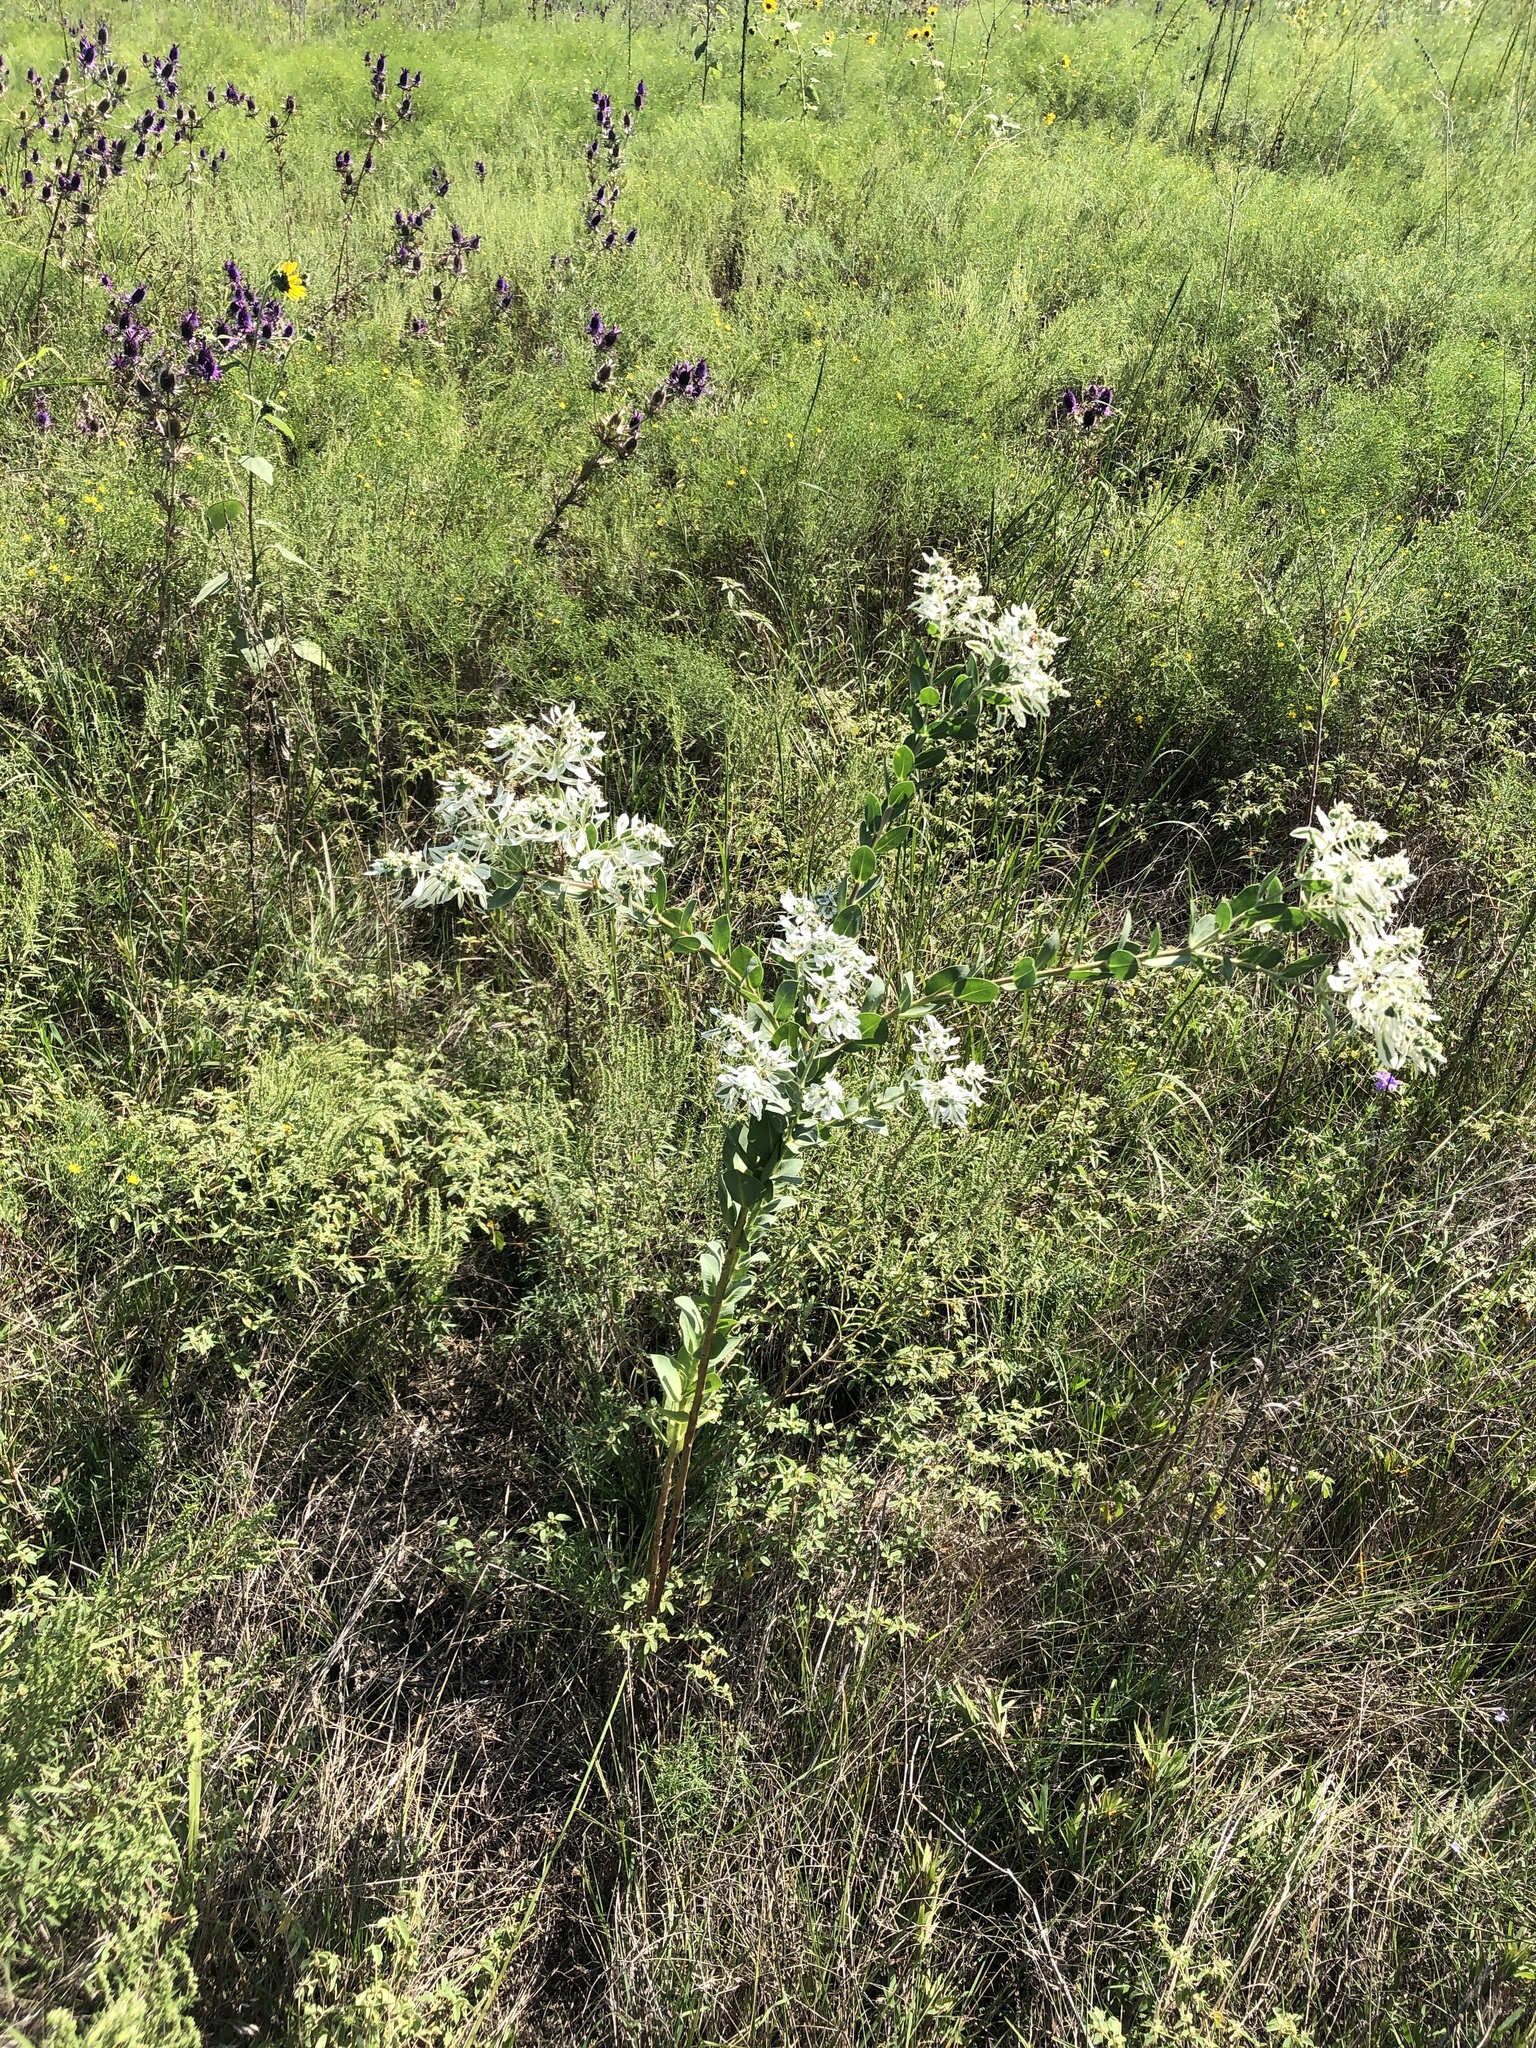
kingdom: Plantae
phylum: Tracheophyta
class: Magnoliopsida
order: Malpighiales
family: Euphorbiaceae
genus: Euphorbia
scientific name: Euphorbia marginata
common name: Ghostweed
